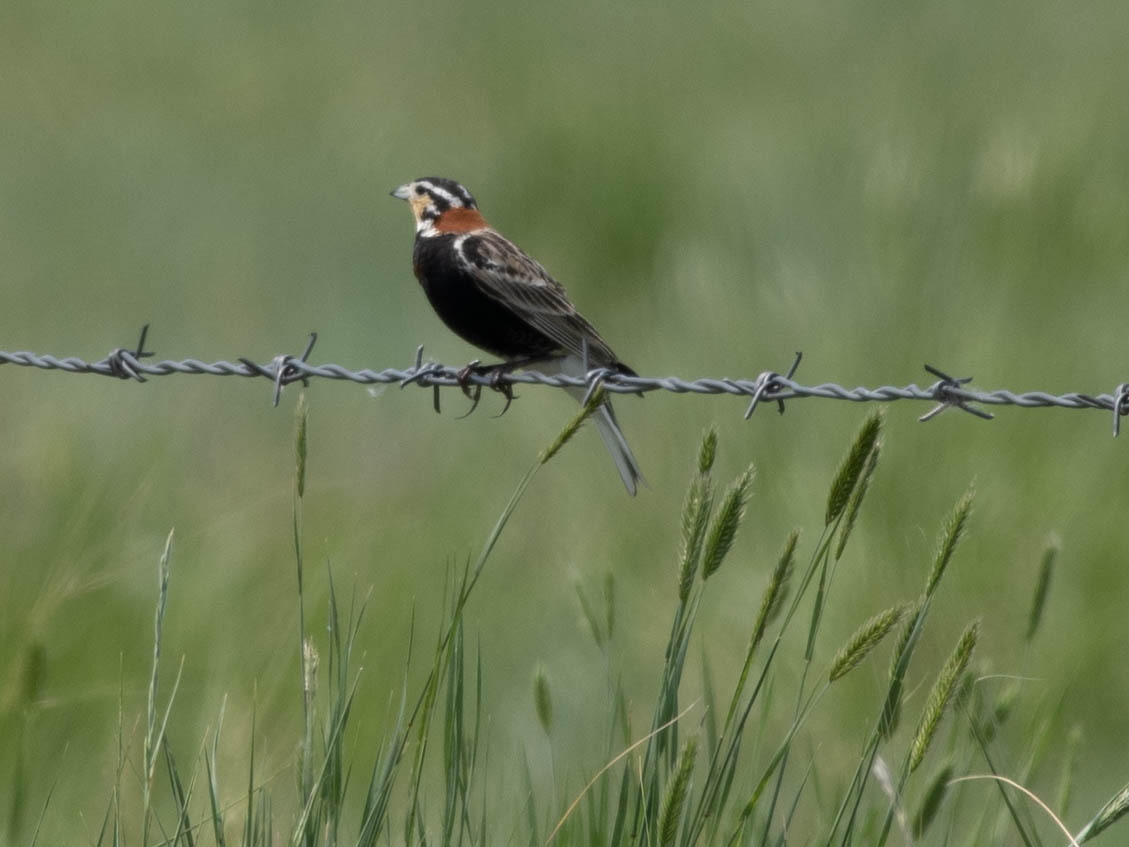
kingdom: Animalia
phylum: Chordata
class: Aves
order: Passeriformes
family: Calcariidae
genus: Calcarius
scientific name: Calcarius ornatus
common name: Chestnut-collared longspur
